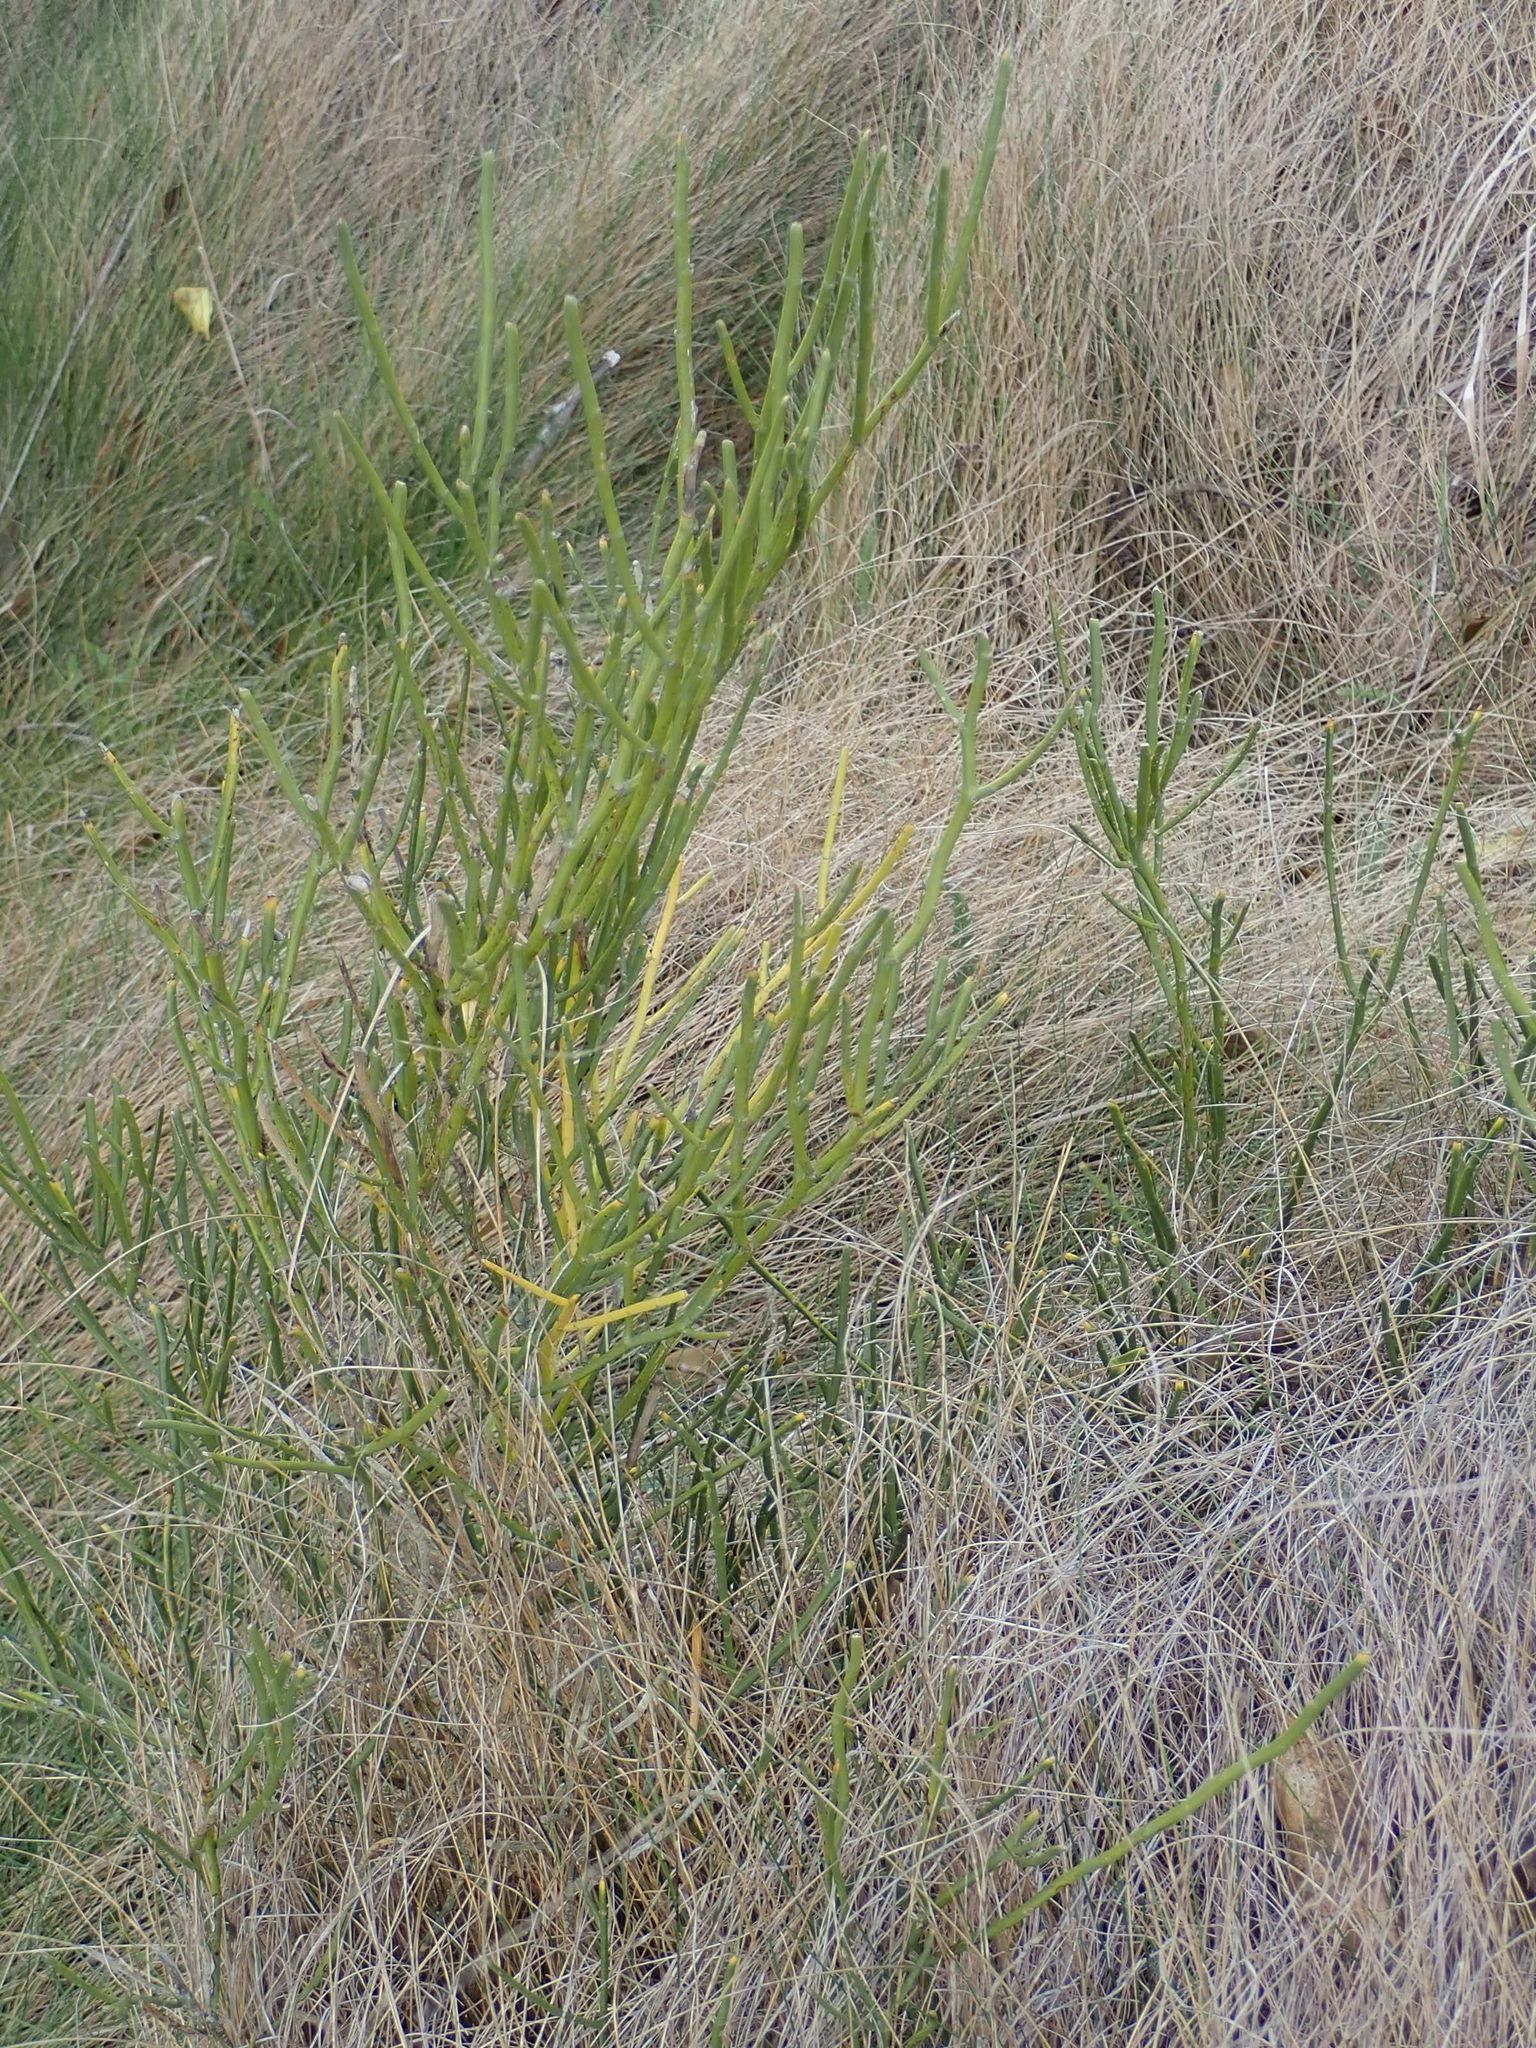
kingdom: Plantae
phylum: Tracheophyta
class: Magnoliopsida
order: Fabales
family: Fabaceae
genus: Carmichaelia
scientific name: Carmichaelia petriei
